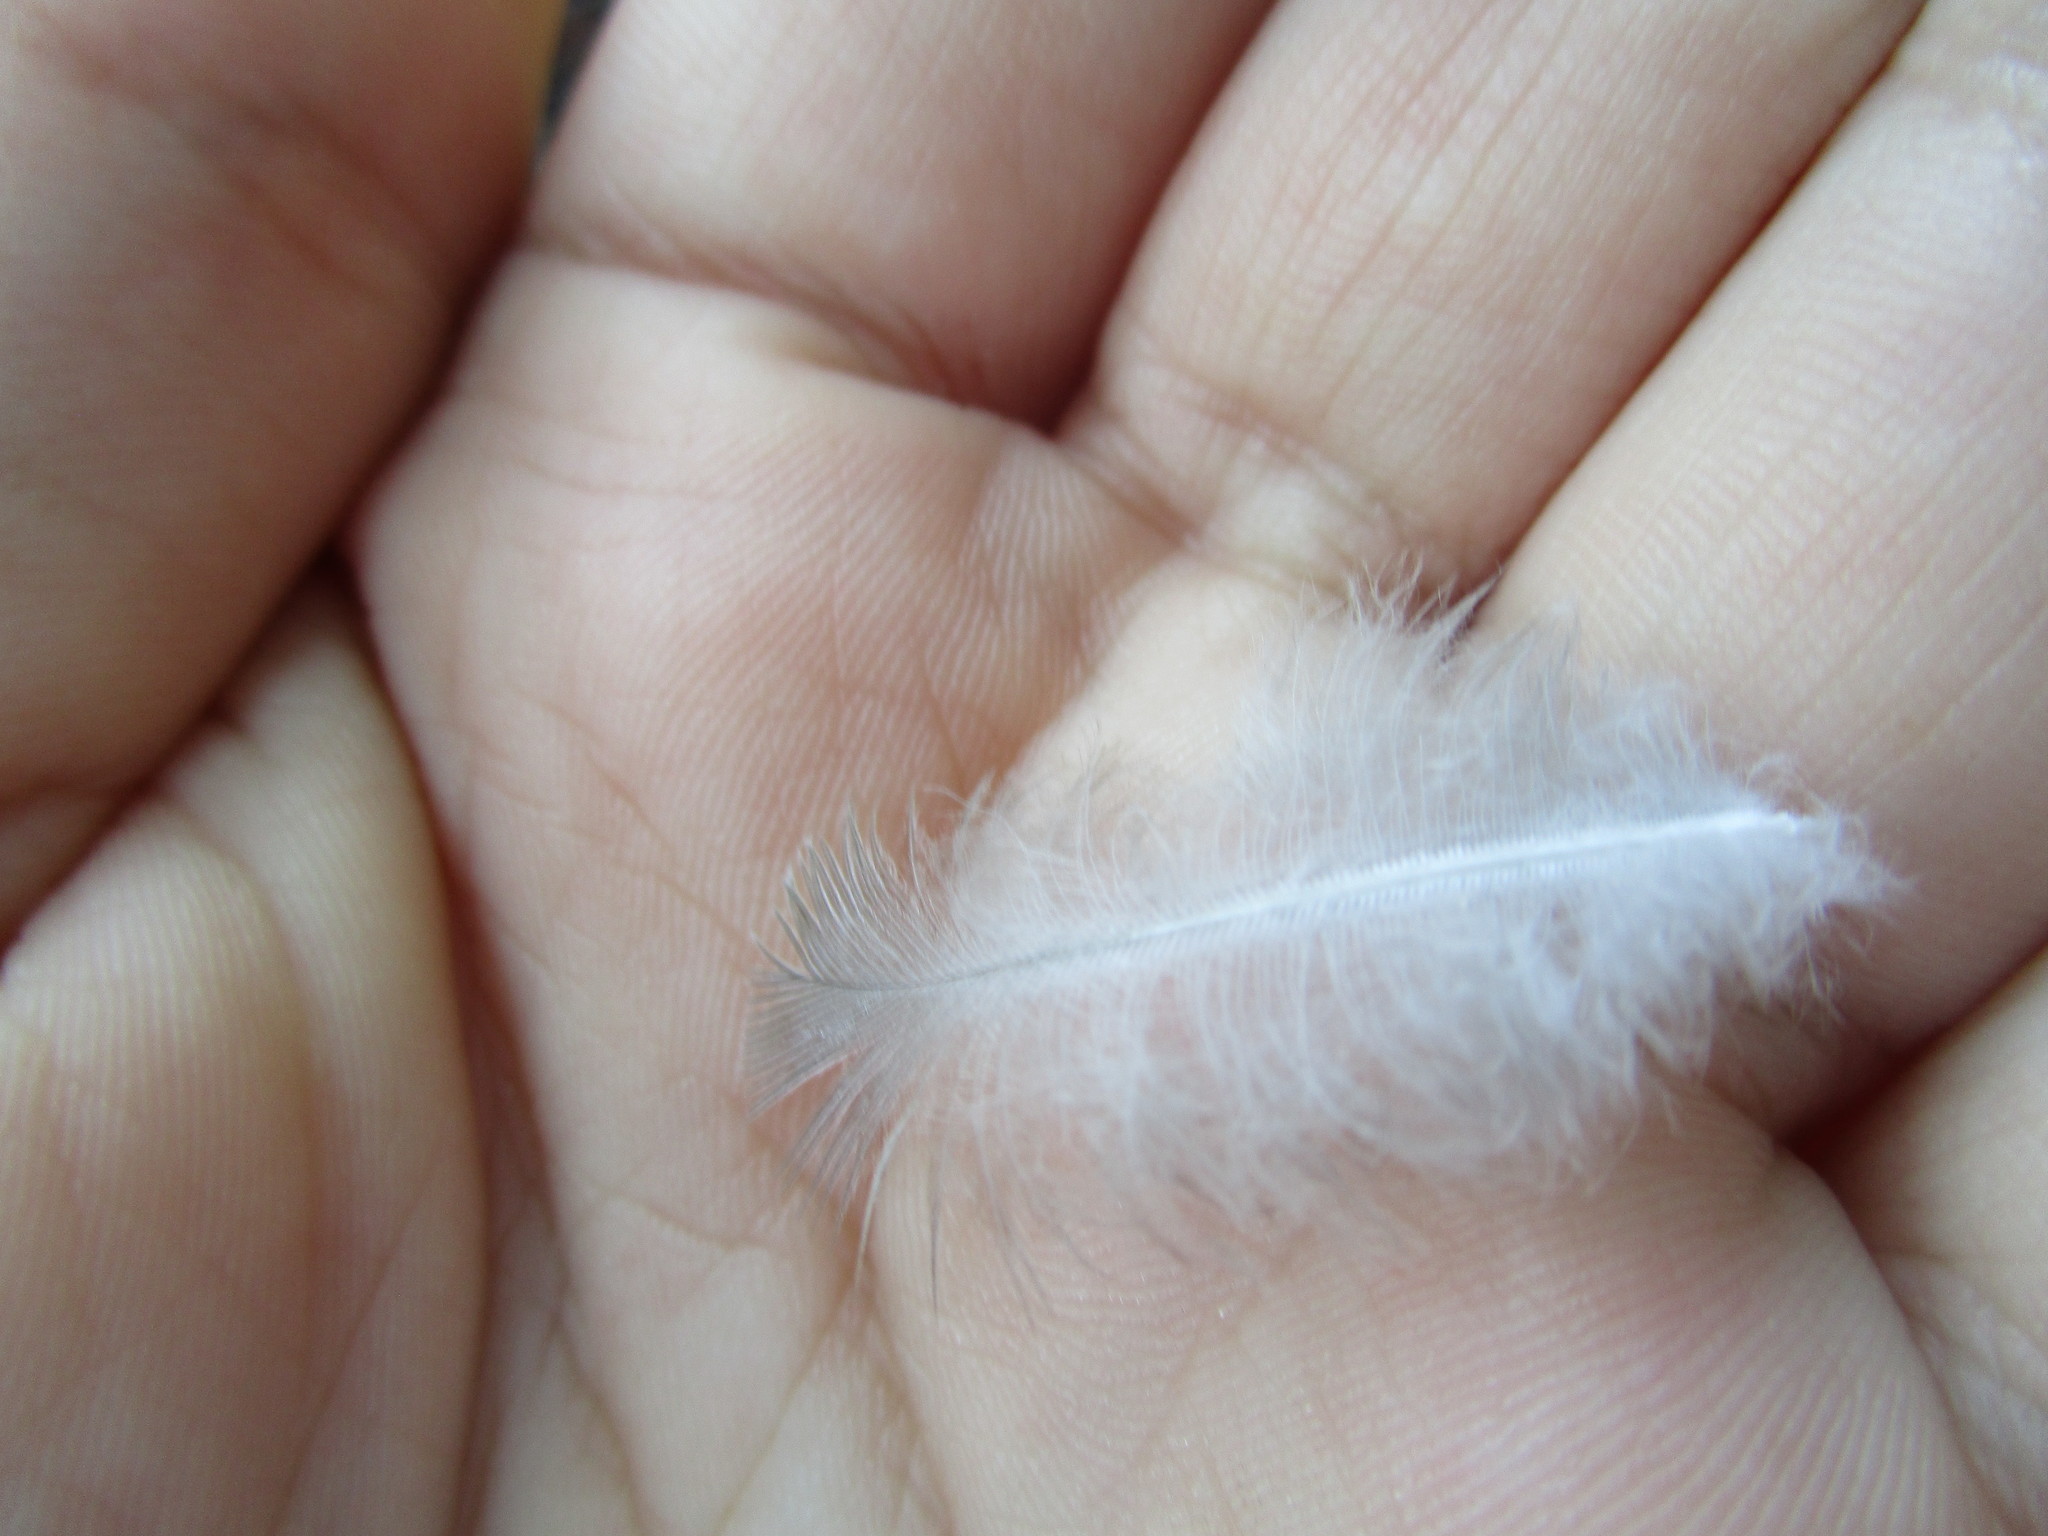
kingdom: Animalia
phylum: Chordata
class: Aves
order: Columbiformes
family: Columbidae
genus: Zenaida
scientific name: Zenaida macroura
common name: Mourning dove
